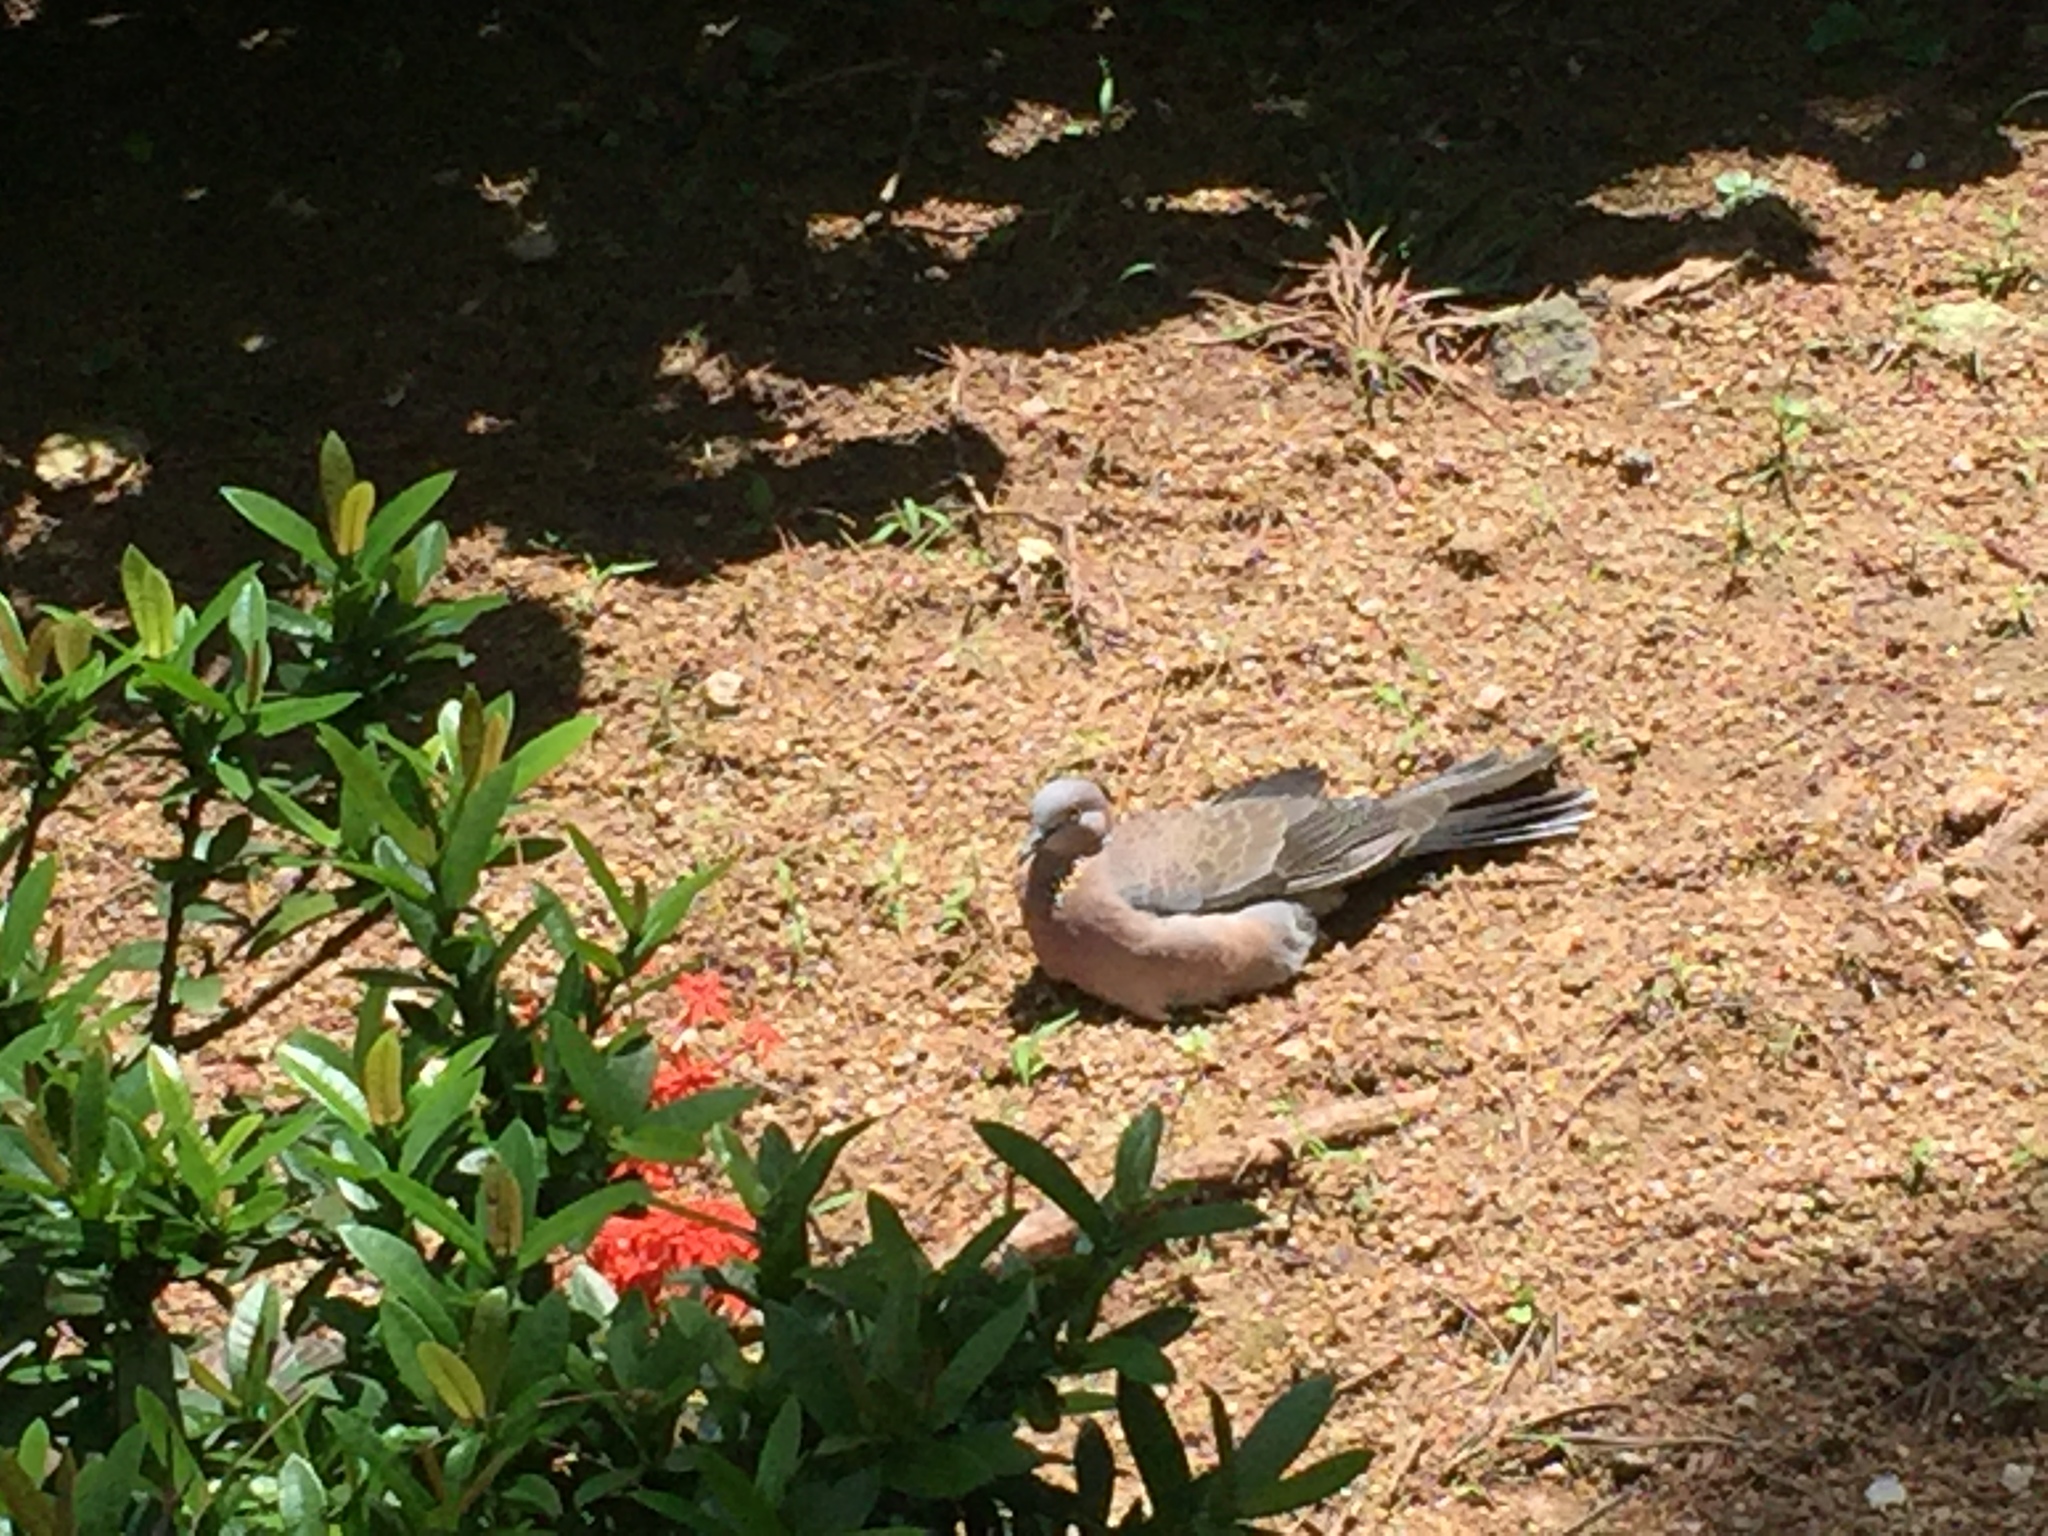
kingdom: Animalia
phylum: Chordata
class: Aves
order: Columbiformes
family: Columbidae
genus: Spilopelia
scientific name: Spilopelia chinensis
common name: Spotted dove
